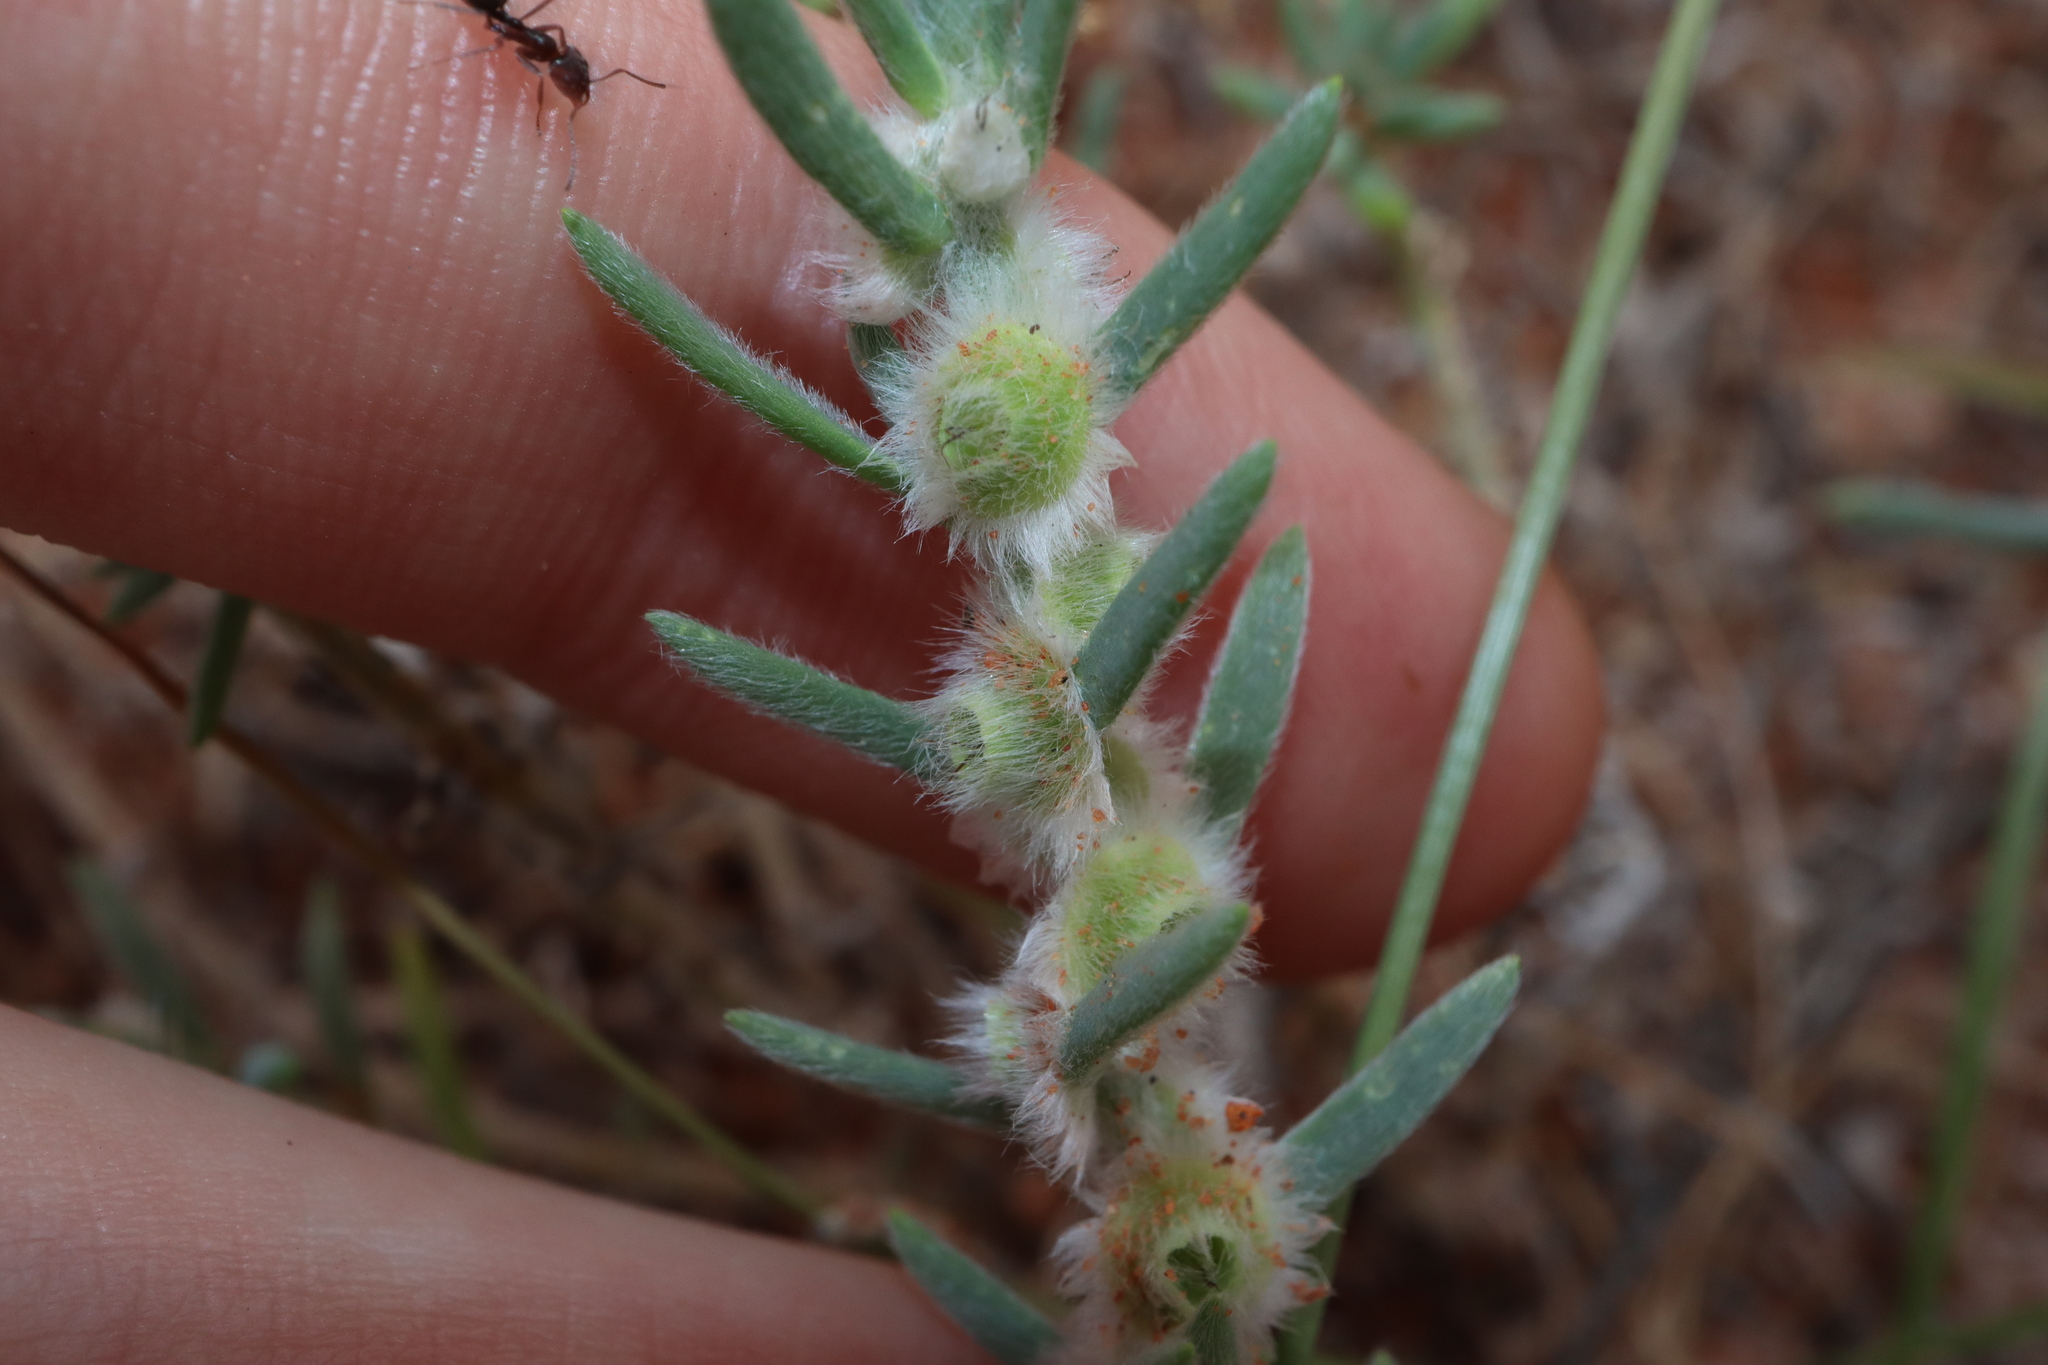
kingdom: Plantae
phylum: Tracheophyta
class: Magnoliopsida
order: Caryophyllales
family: Amaranthaceae
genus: Maireana
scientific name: Maireana coronata
